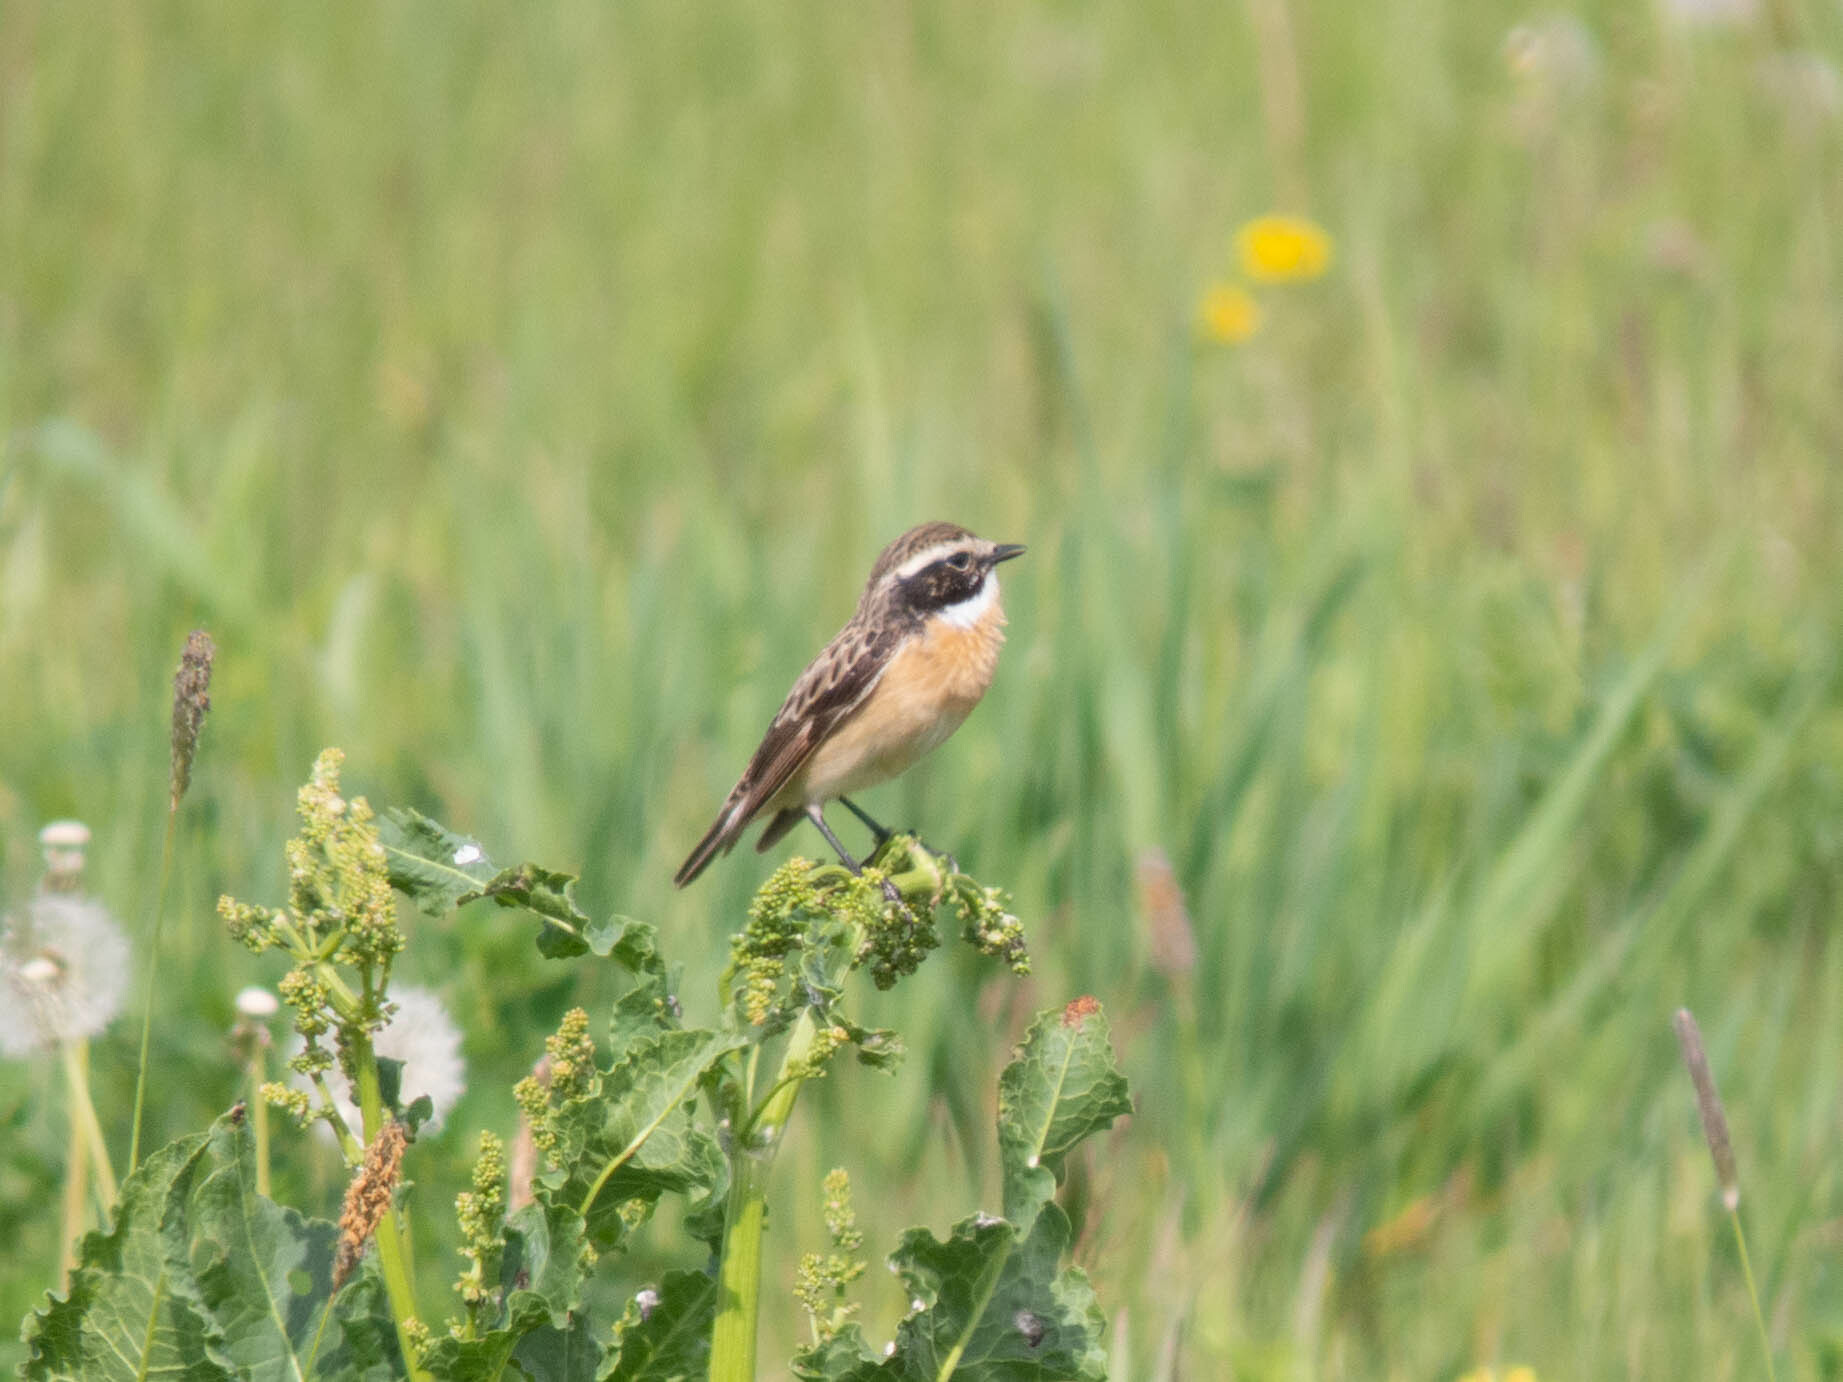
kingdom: Animalia
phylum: Chordata
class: Aves
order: Passeriformes
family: Muscicapidae
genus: Saxicola
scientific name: Saxicola rubetra
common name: Whinchat
